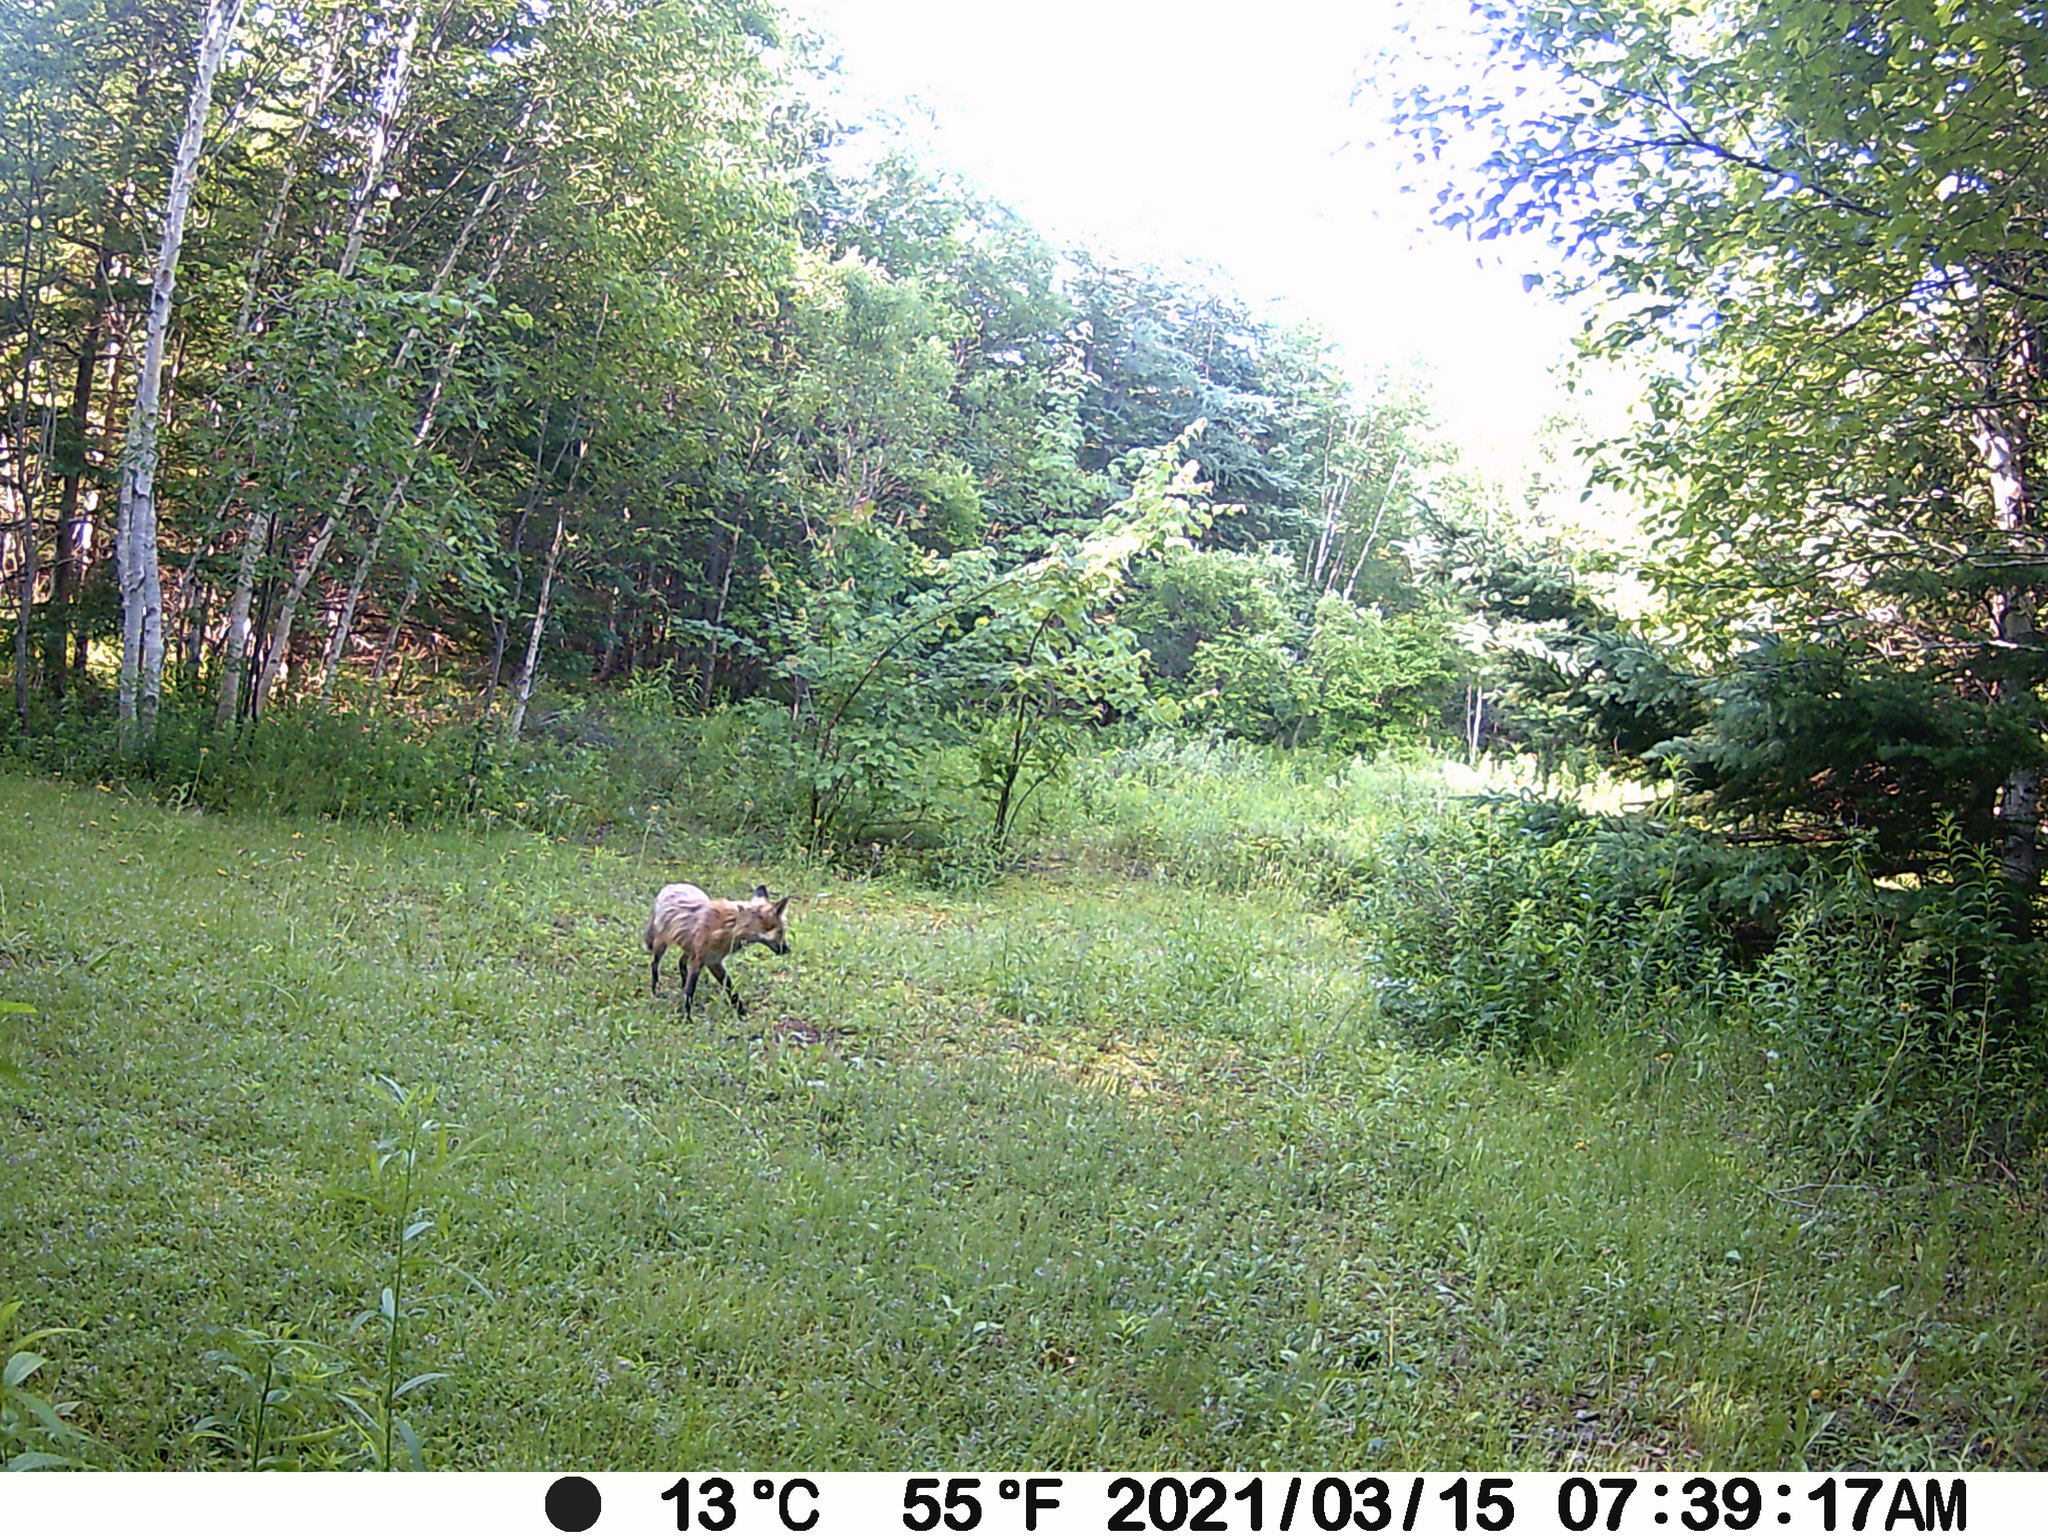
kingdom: Animalia
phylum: Chordata
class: Mammalia
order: Carnivora
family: Canidae
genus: Vulpes
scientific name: Vulpes vulpes
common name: Red fox
